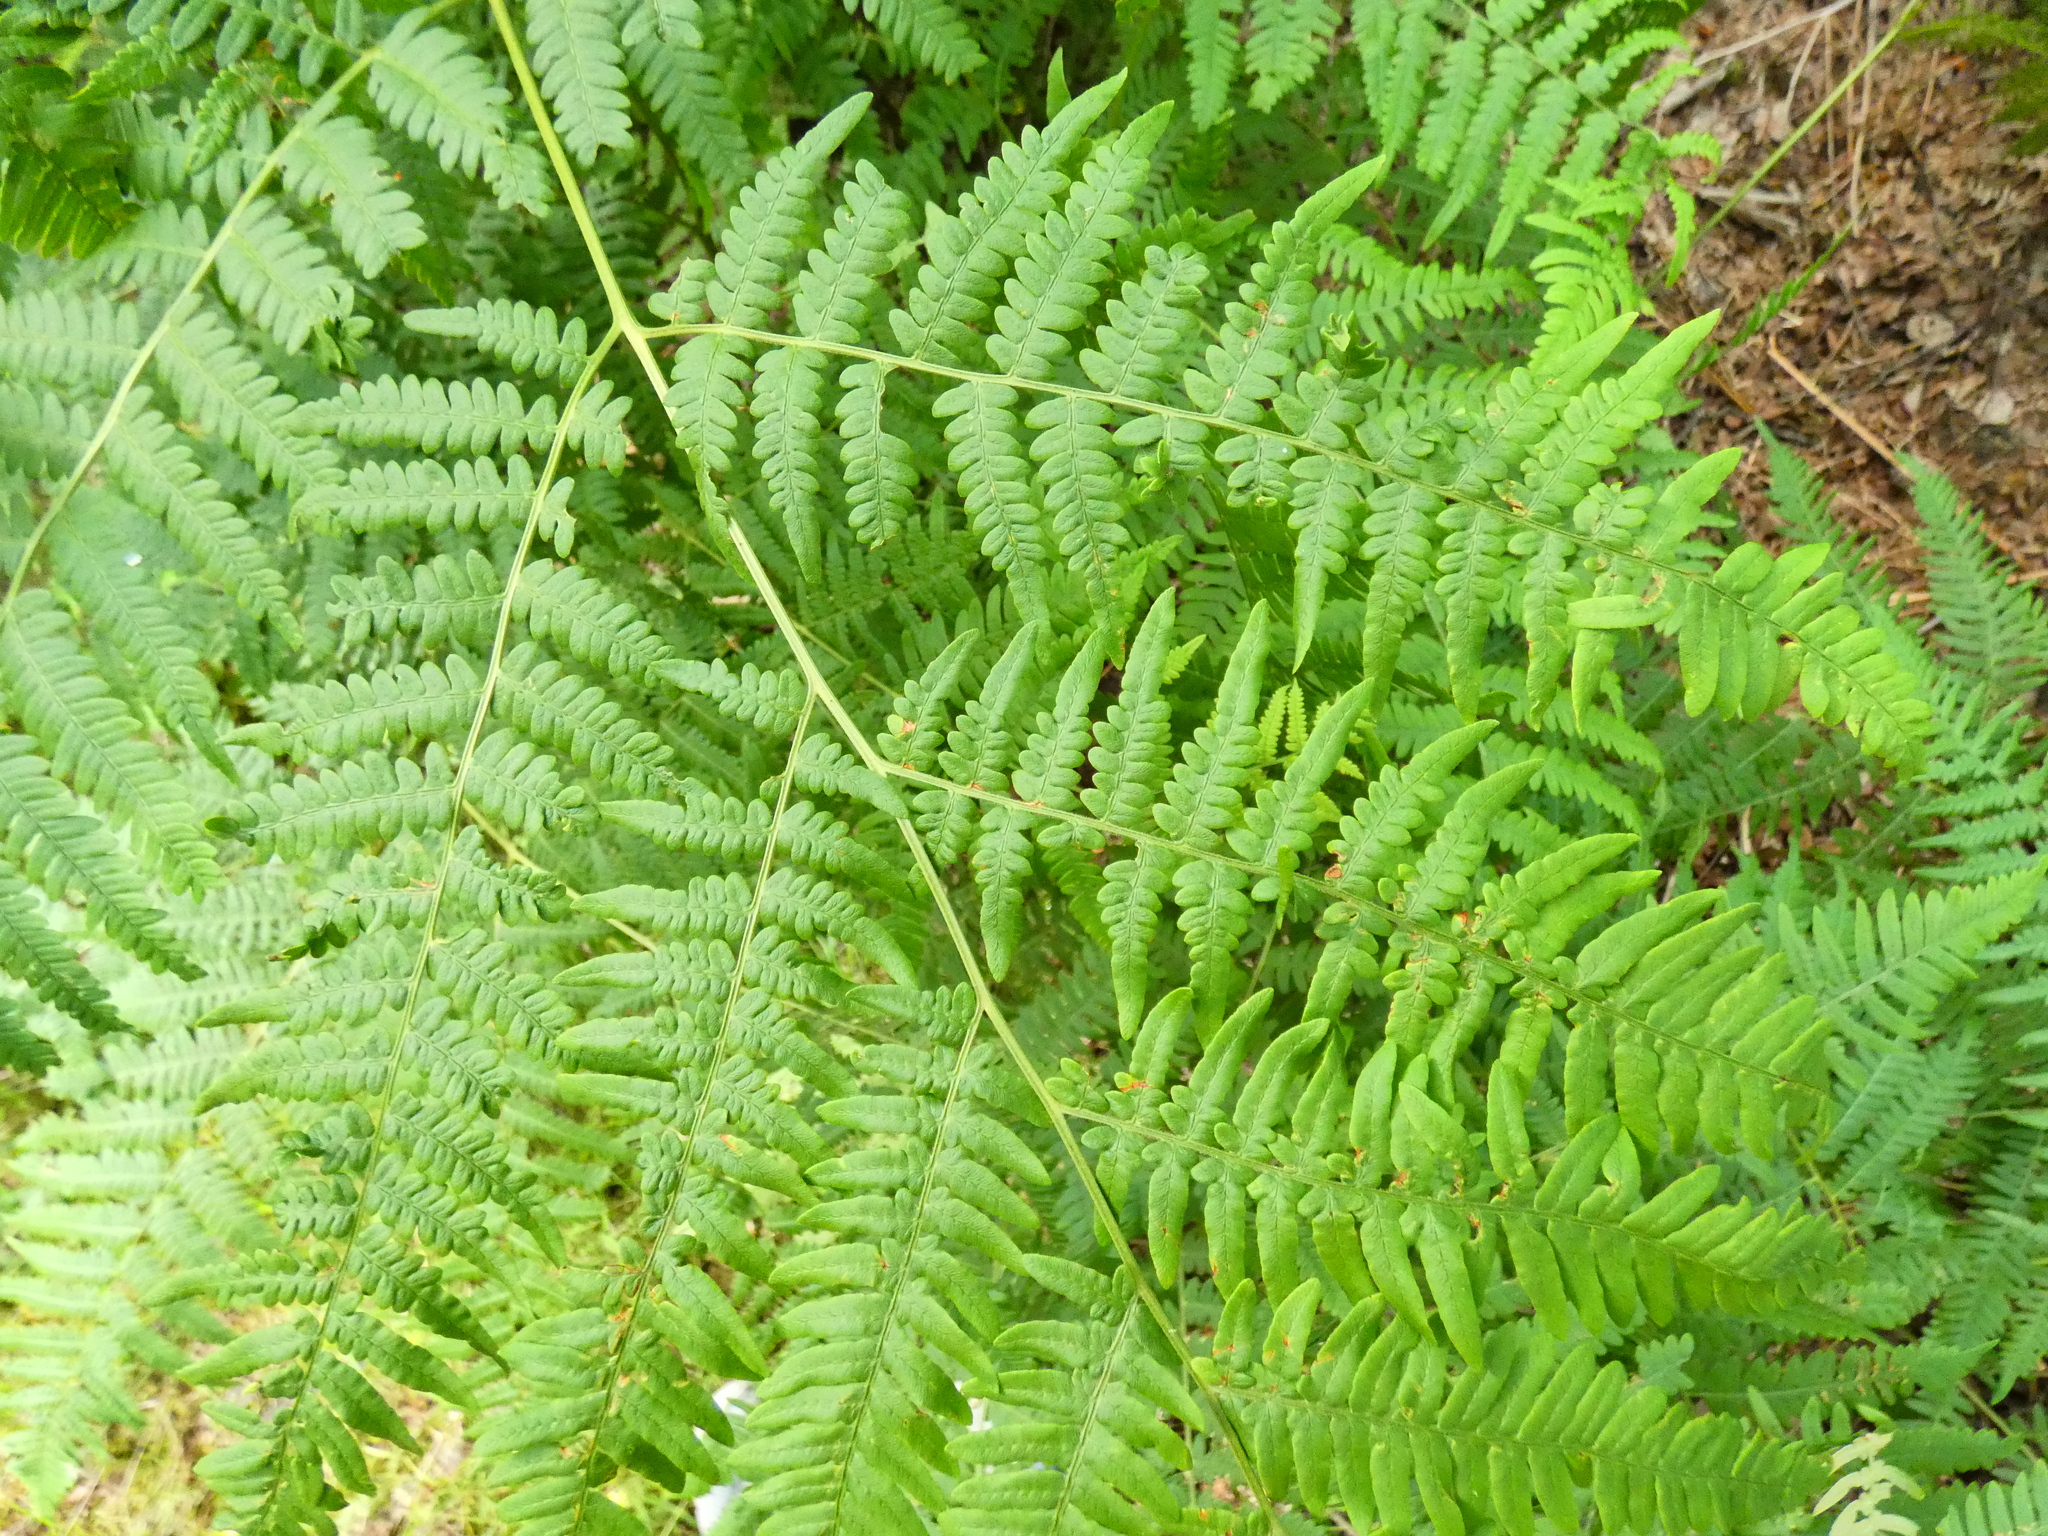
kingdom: Plantae
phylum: Tracheophyta
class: Polypodiopsida
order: Polypodiales
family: Dennstaedtiaceae
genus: Pteridium
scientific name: Pteridium aquilinum
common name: Bracken
